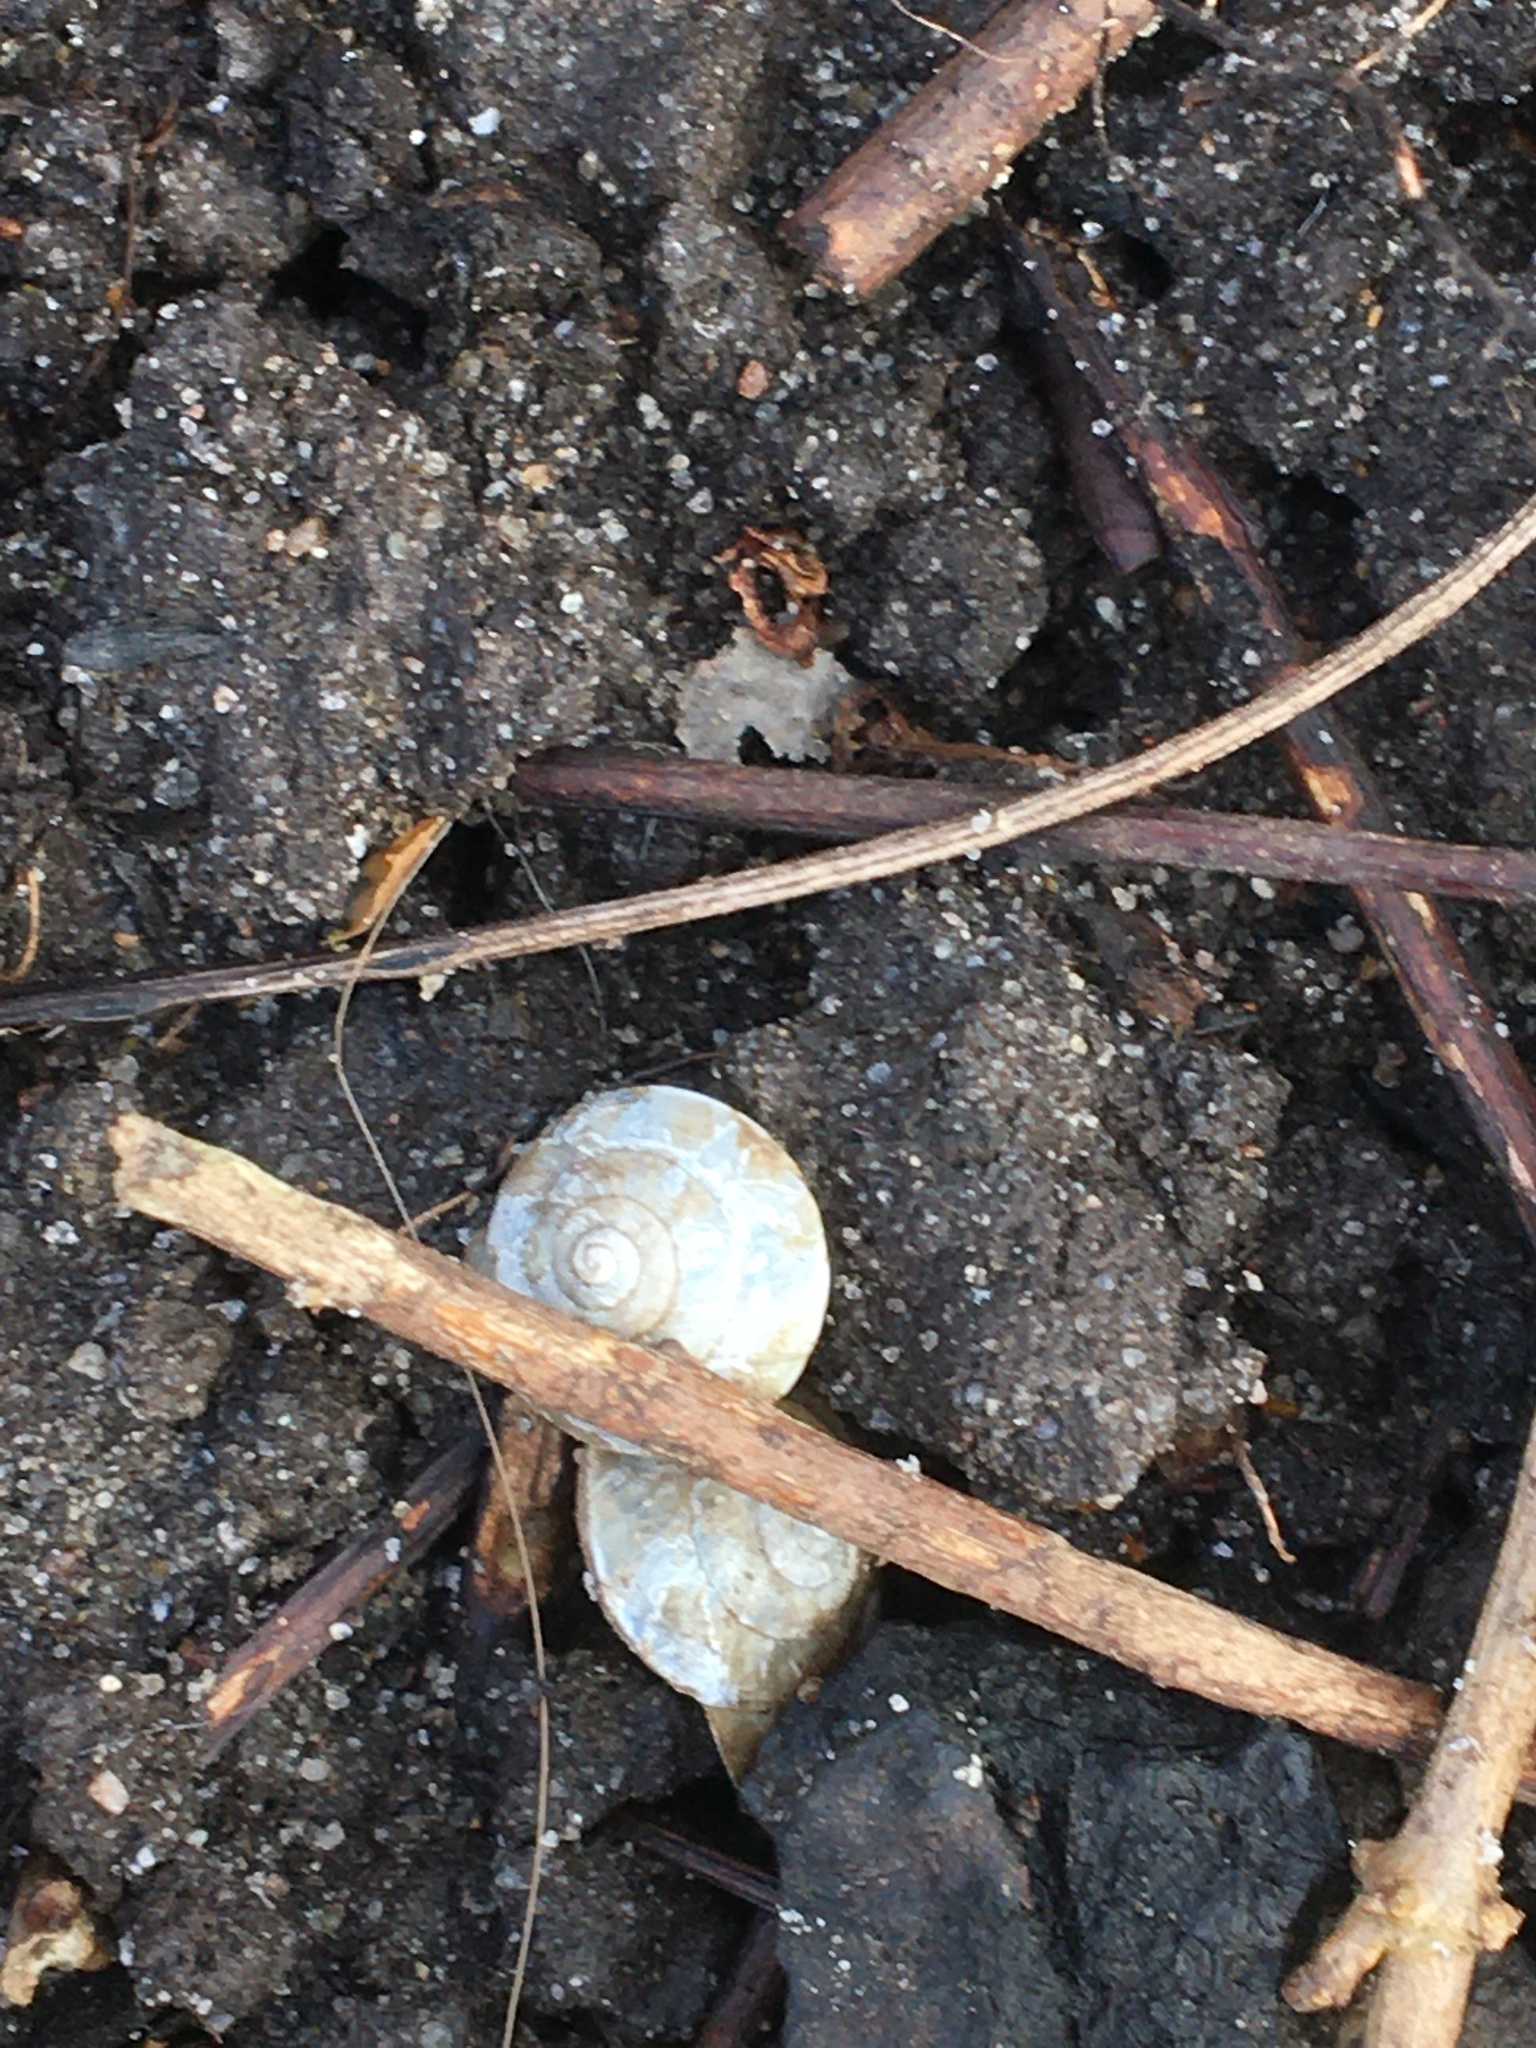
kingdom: Animalia
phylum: Mollusca
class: Gastropoda
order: Stylommatophora
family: Hygromiidae
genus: Hygromia
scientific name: Hygromia cinctella
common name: Girdled snail
